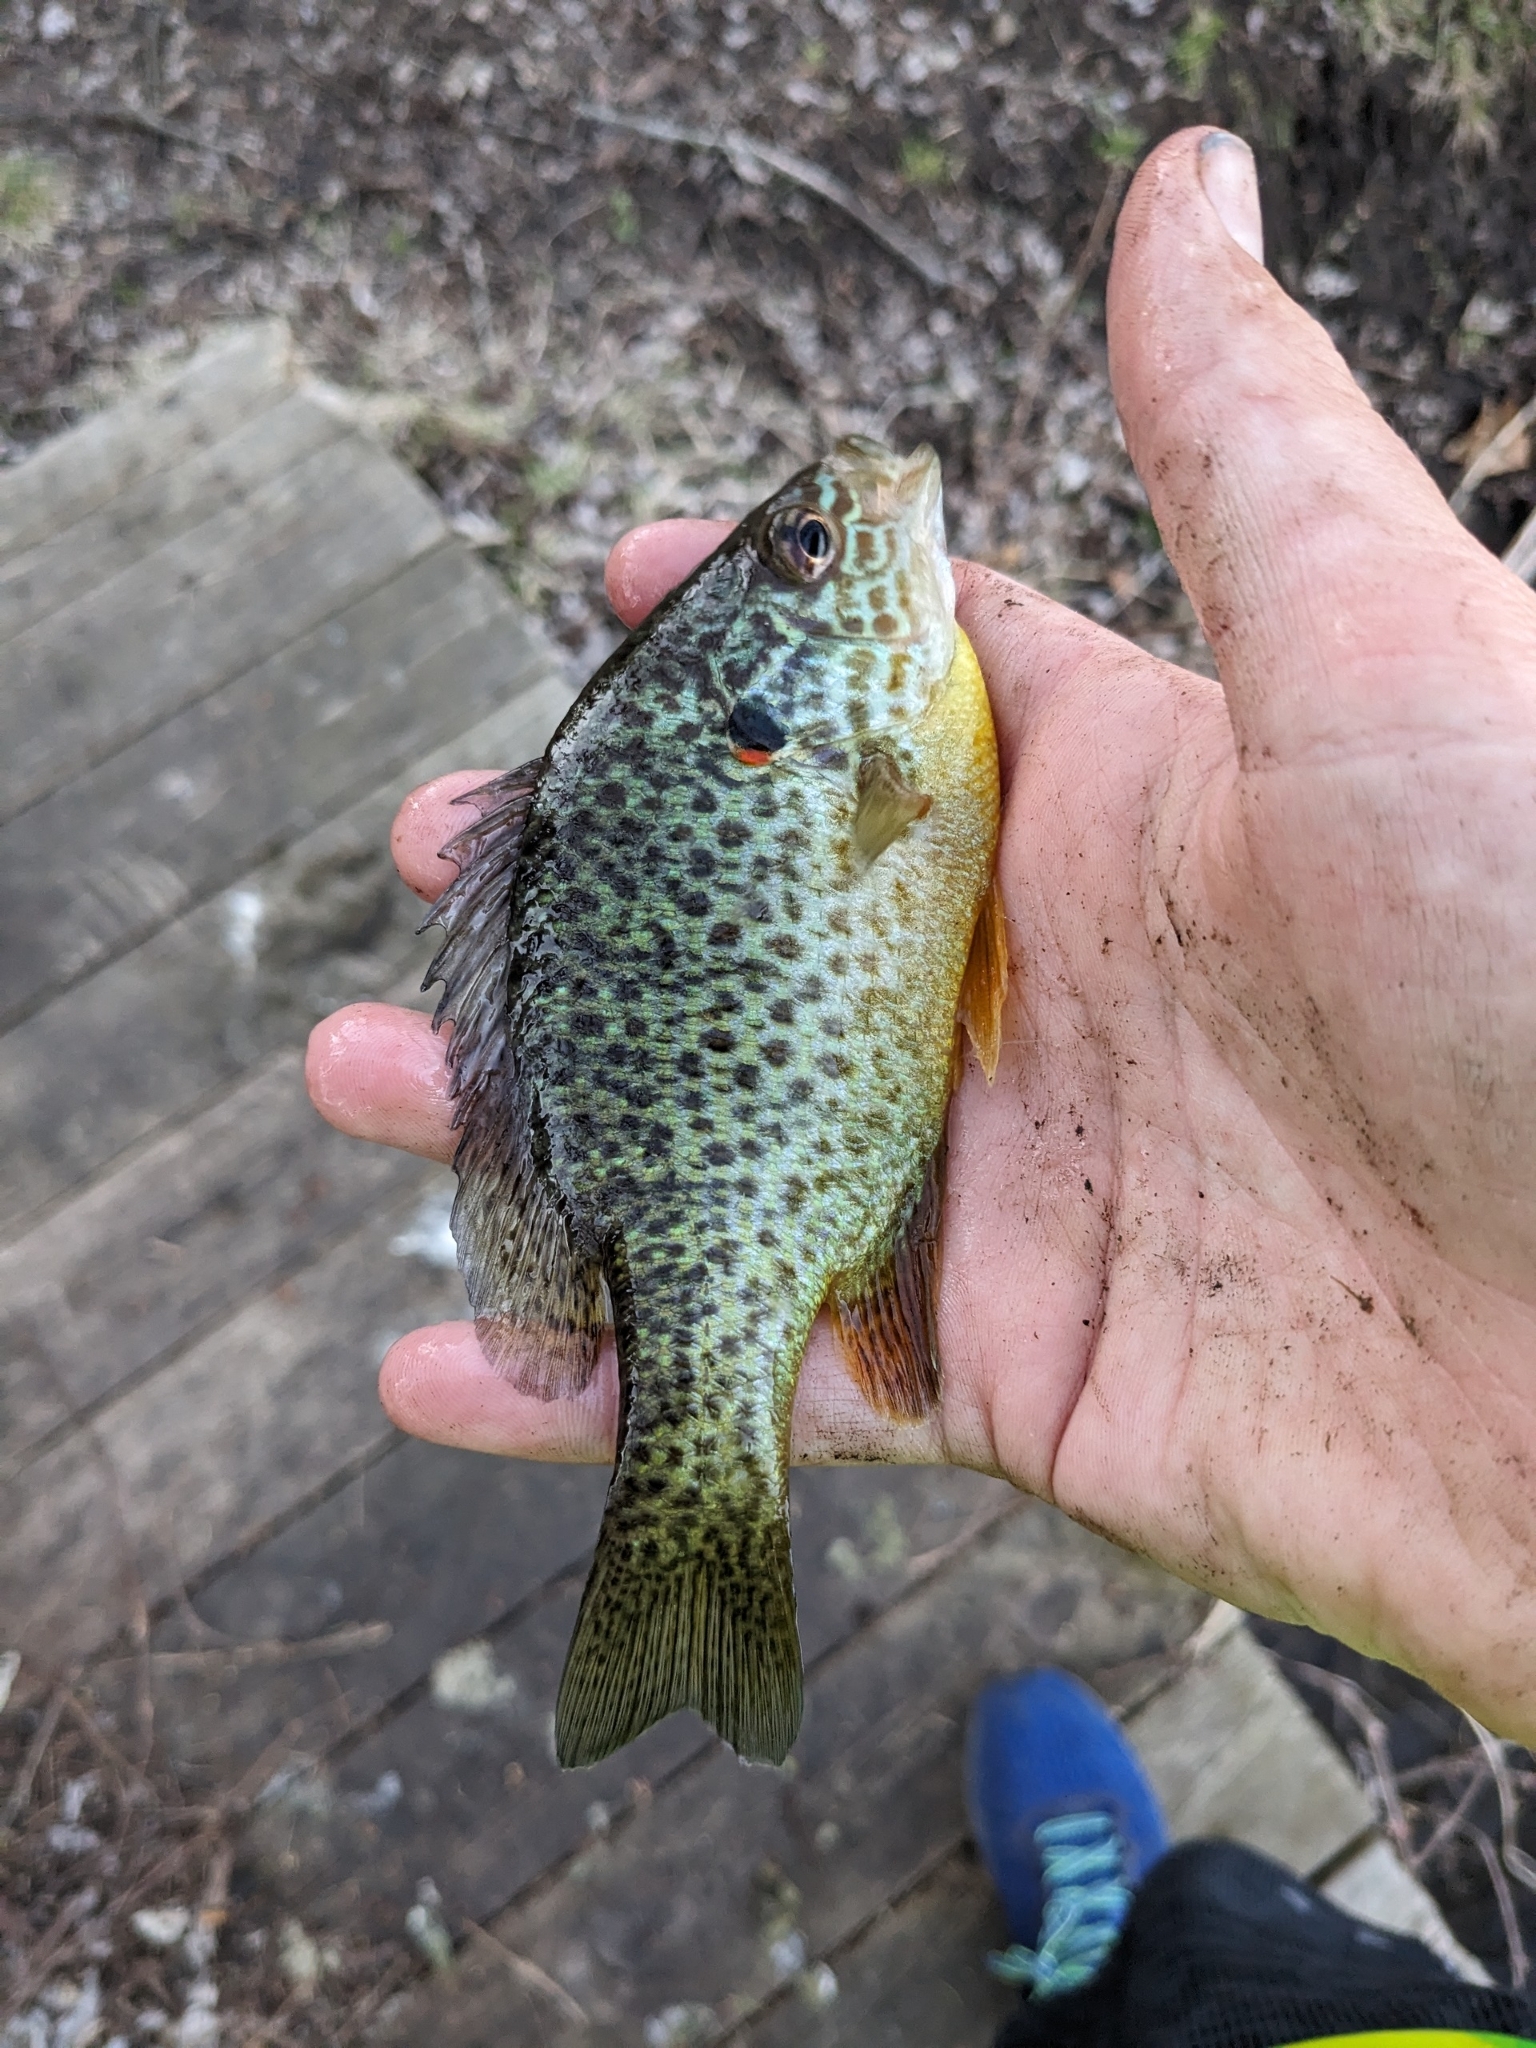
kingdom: Animalia
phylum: Chordata
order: Perciformes
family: Centrarchidae
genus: Lepomis
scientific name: Lepomis gibbosus
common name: Pumpkinseed
